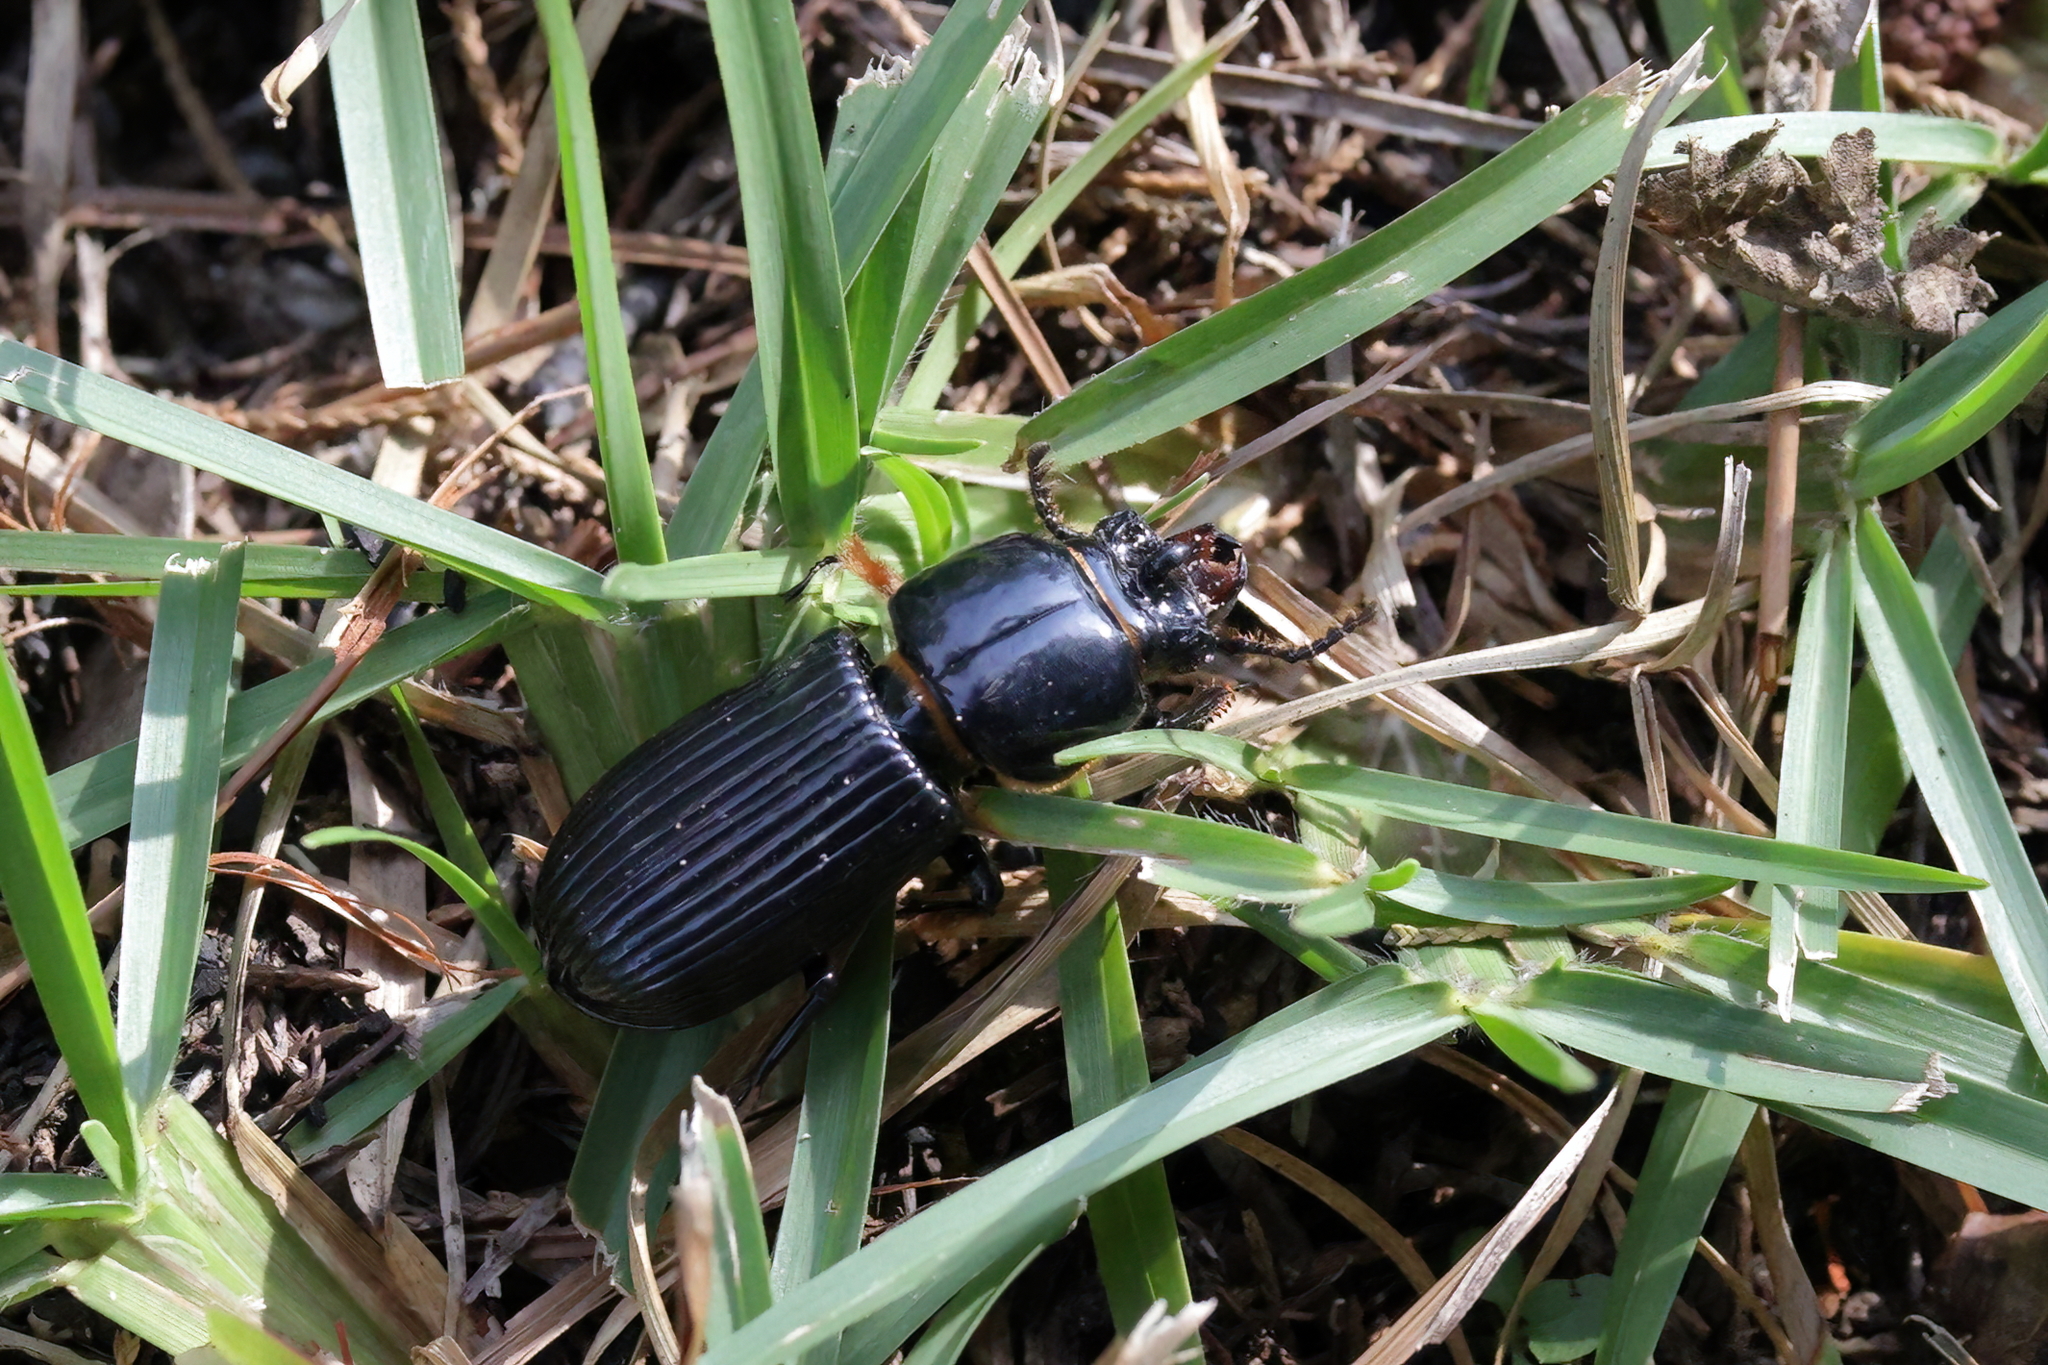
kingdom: Animalia
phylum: Arthropoda
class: Insecta
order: Coleoptera
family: Passalidae
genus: Odontotaenius
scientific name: Odontotaenius disjunctus
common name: Patent leather beetle
